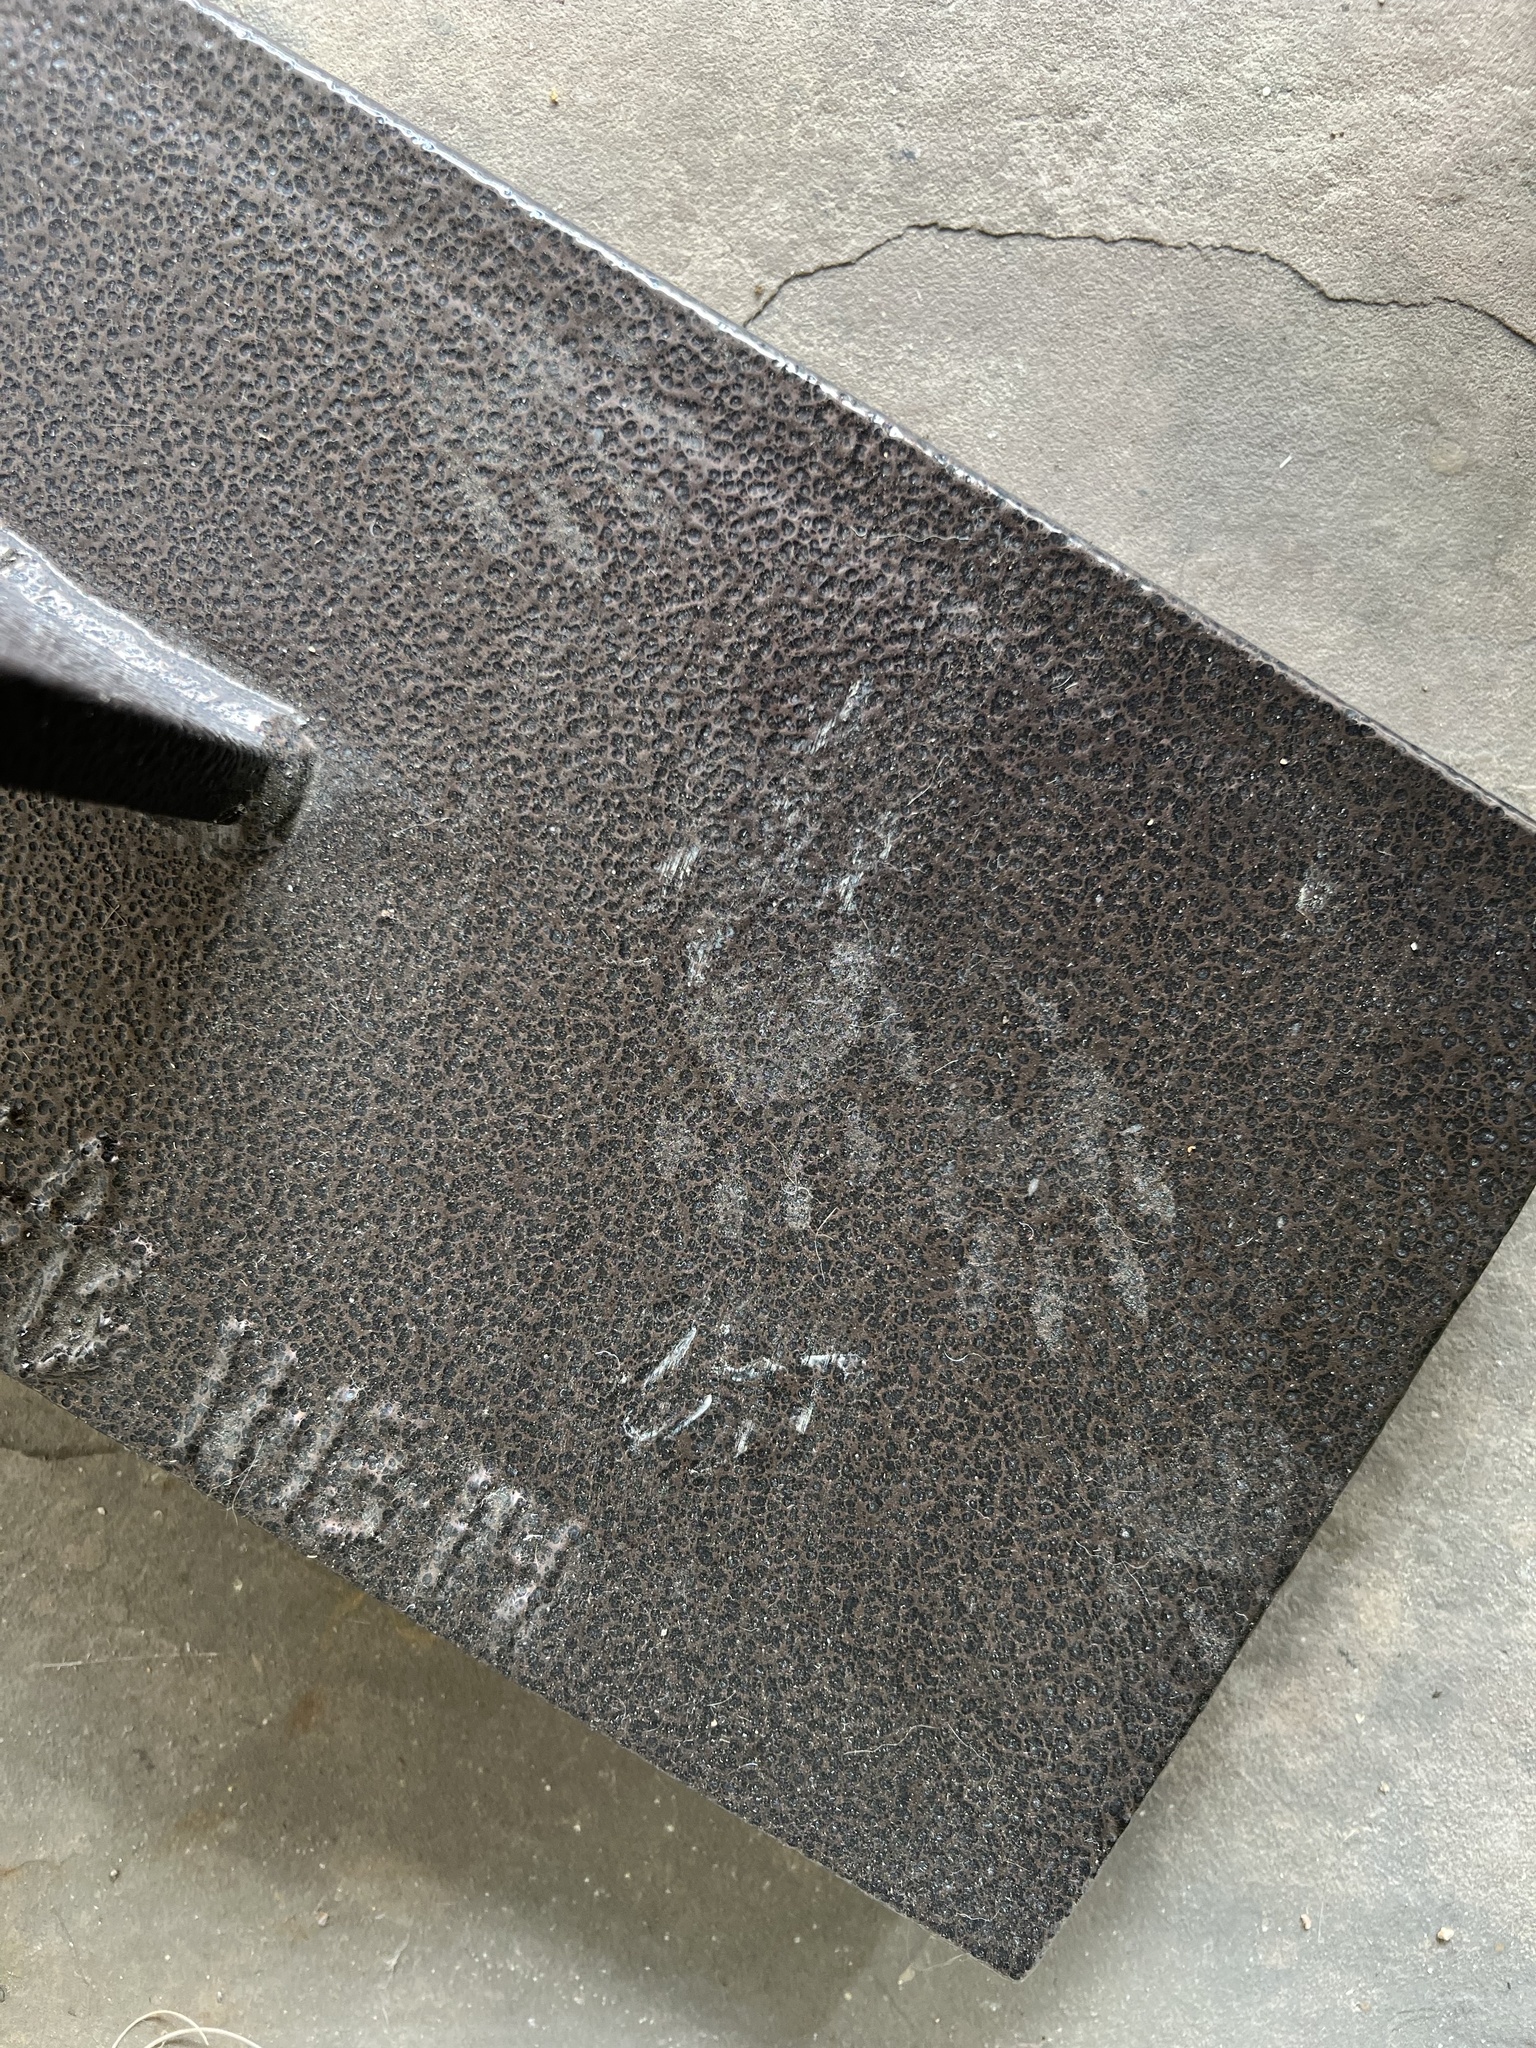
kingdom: Animalia
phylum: Chordata
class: Mammalia
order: Carnivora
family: Procyonidae
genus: Procyon
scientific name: Procyon lotor
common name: Raccoon
